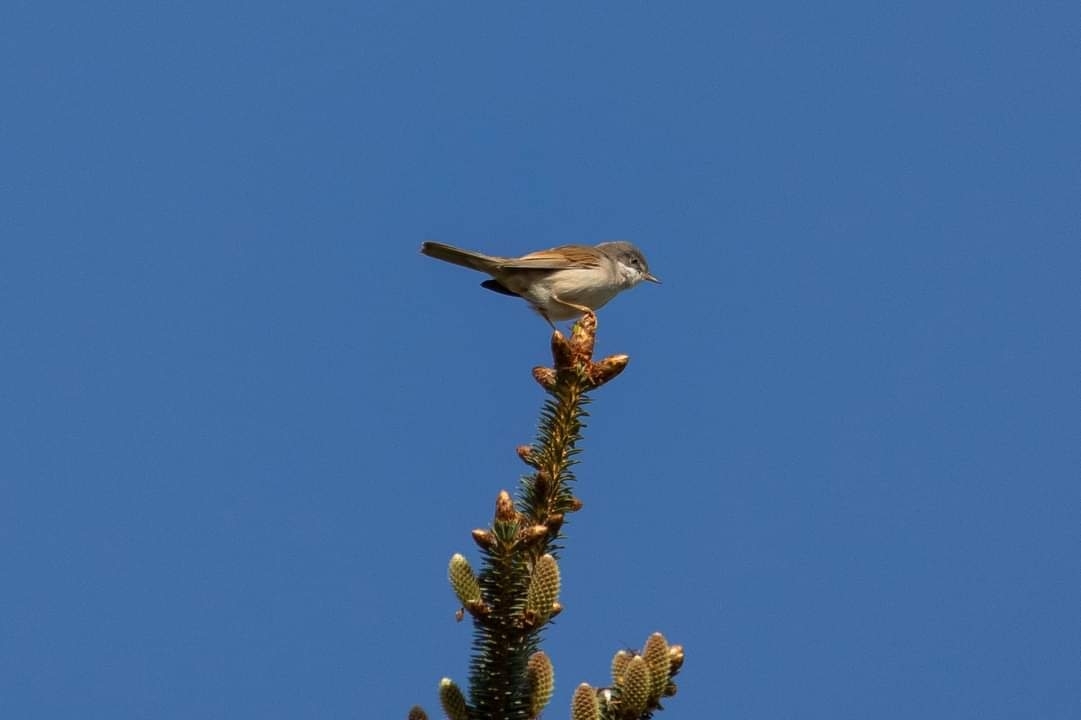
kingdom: Animalia
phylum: Chordata
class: Aves
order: Passeriformes
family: Sylviidae
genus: Sylvia
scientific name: Sylvia communis
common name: Common whitethroat
